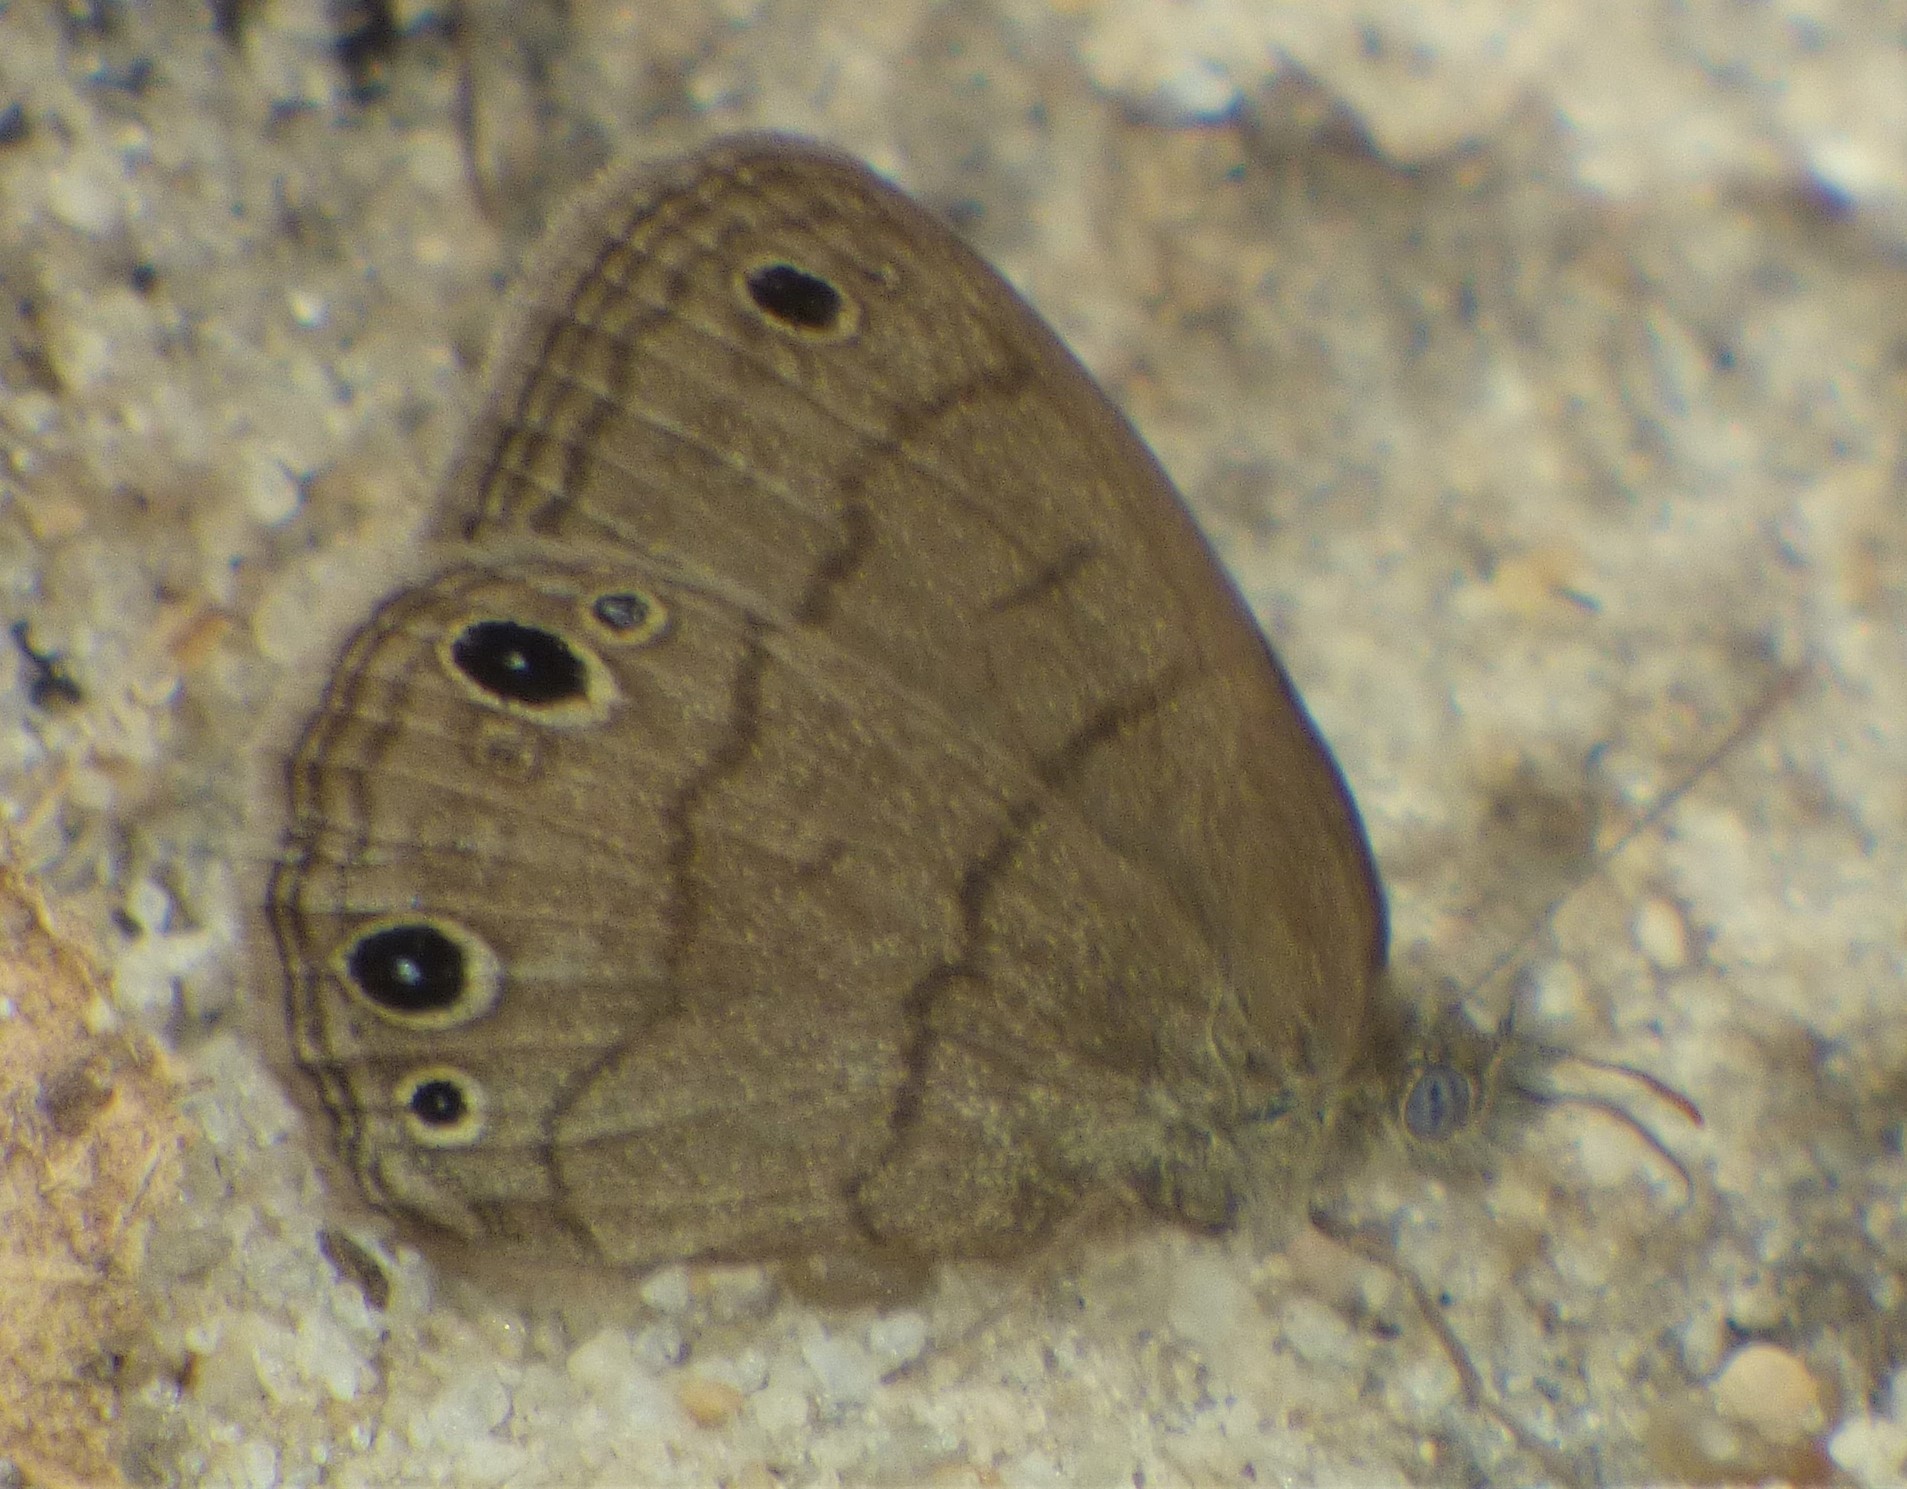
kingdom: Animalia
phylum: Arthropoda
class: Insecta
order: Lepidoptera
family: Nymphalidae
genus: Hermeuptychia
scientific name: Hermeuptychia hermes
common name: Hermes satyr
